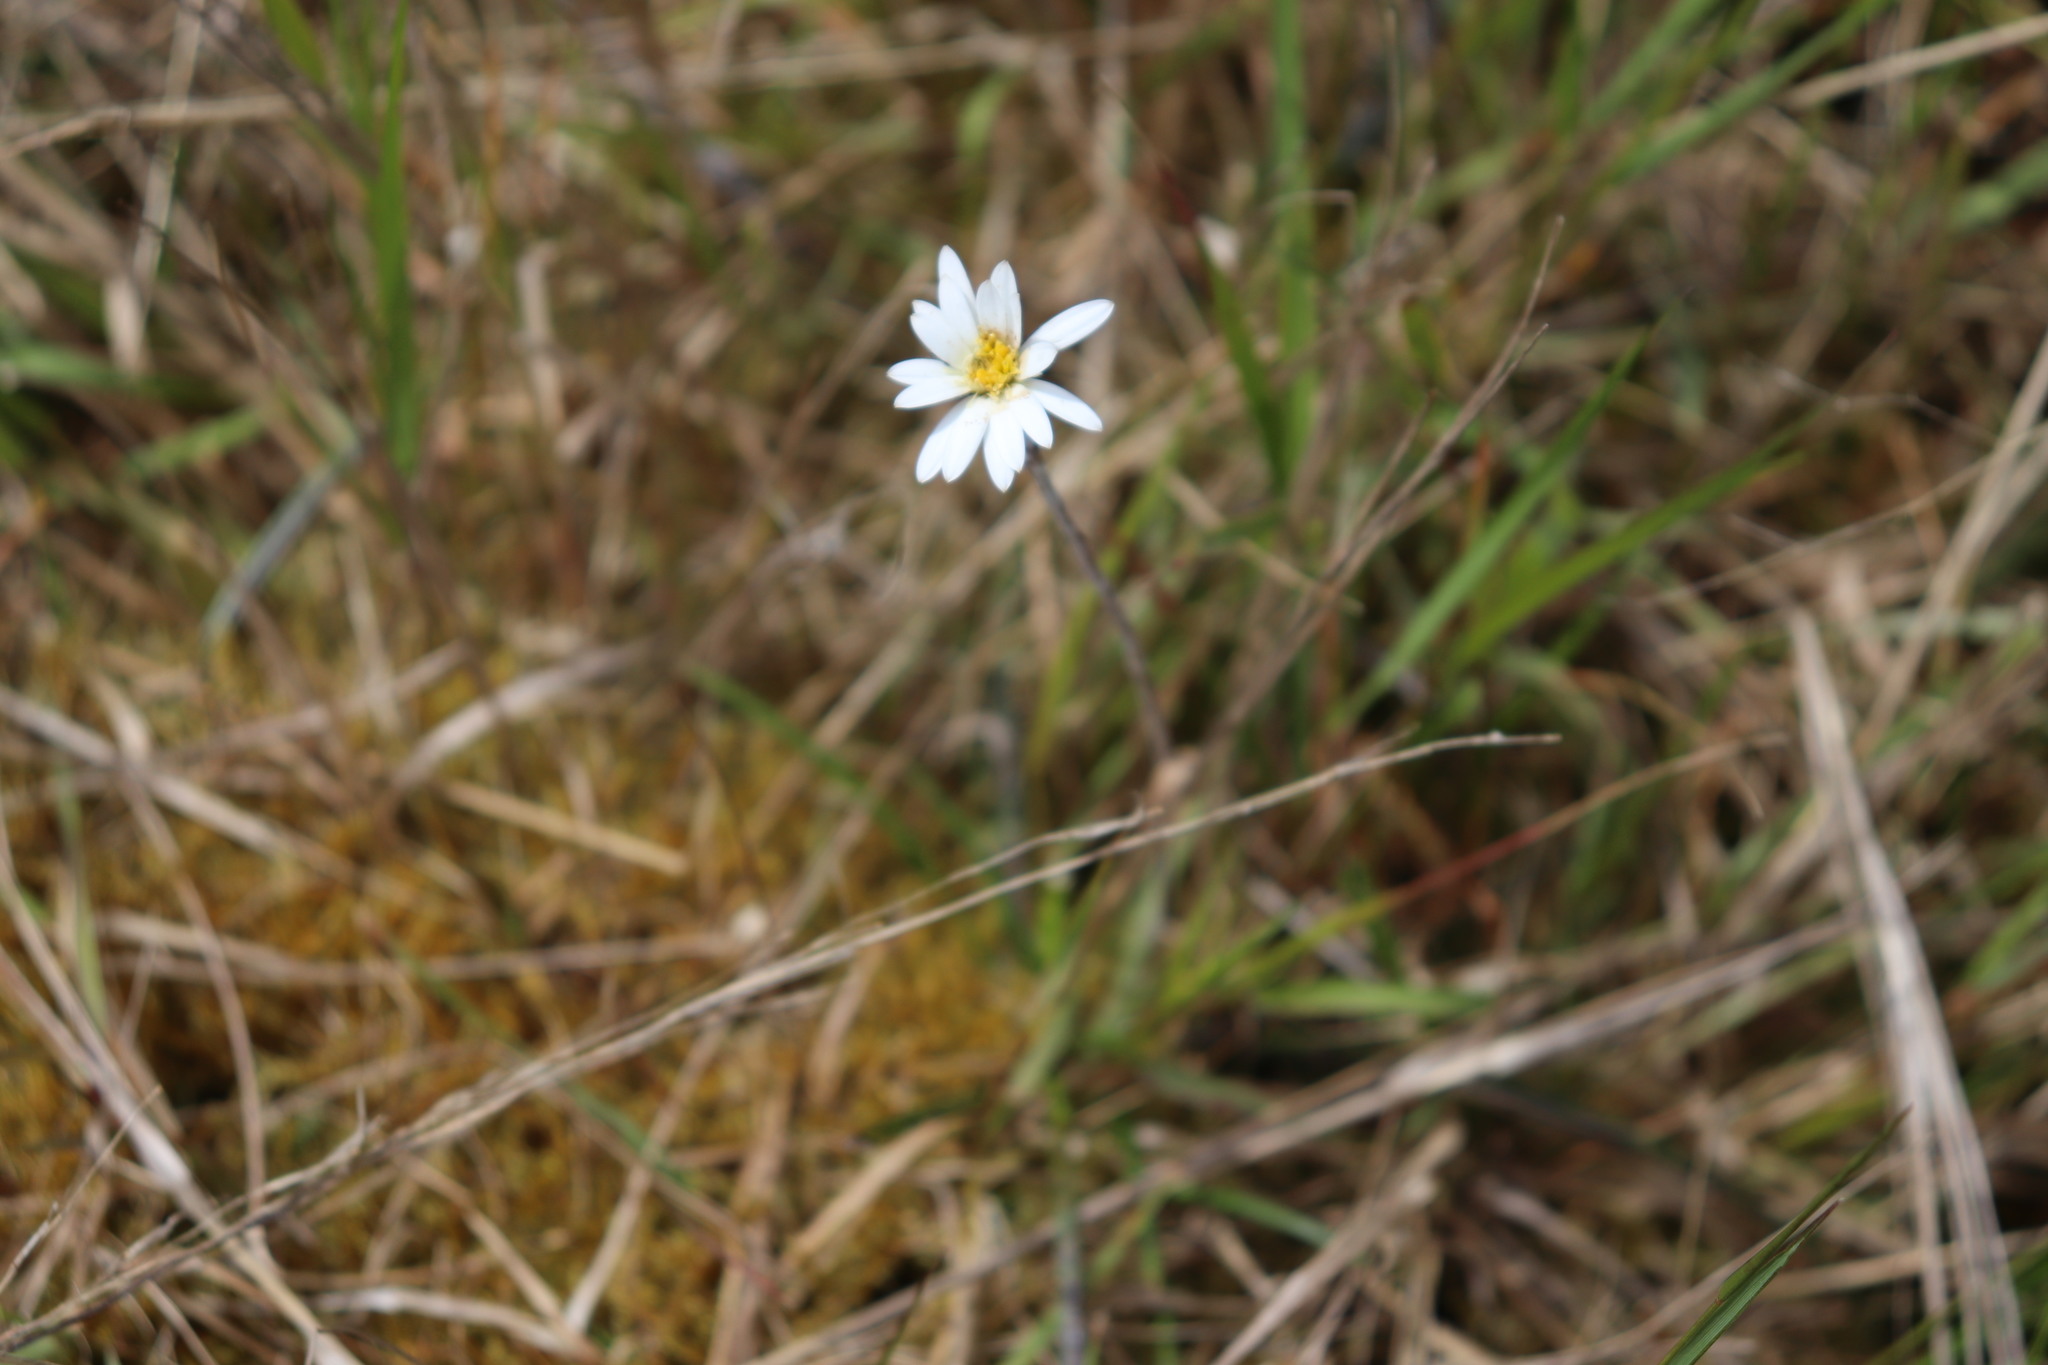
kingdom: Plantae
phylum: Tracheophyta
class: Magnoliopsida
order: Asterales
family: Asteraceae
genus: Celmisia
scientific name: Celmisia gracilenta
